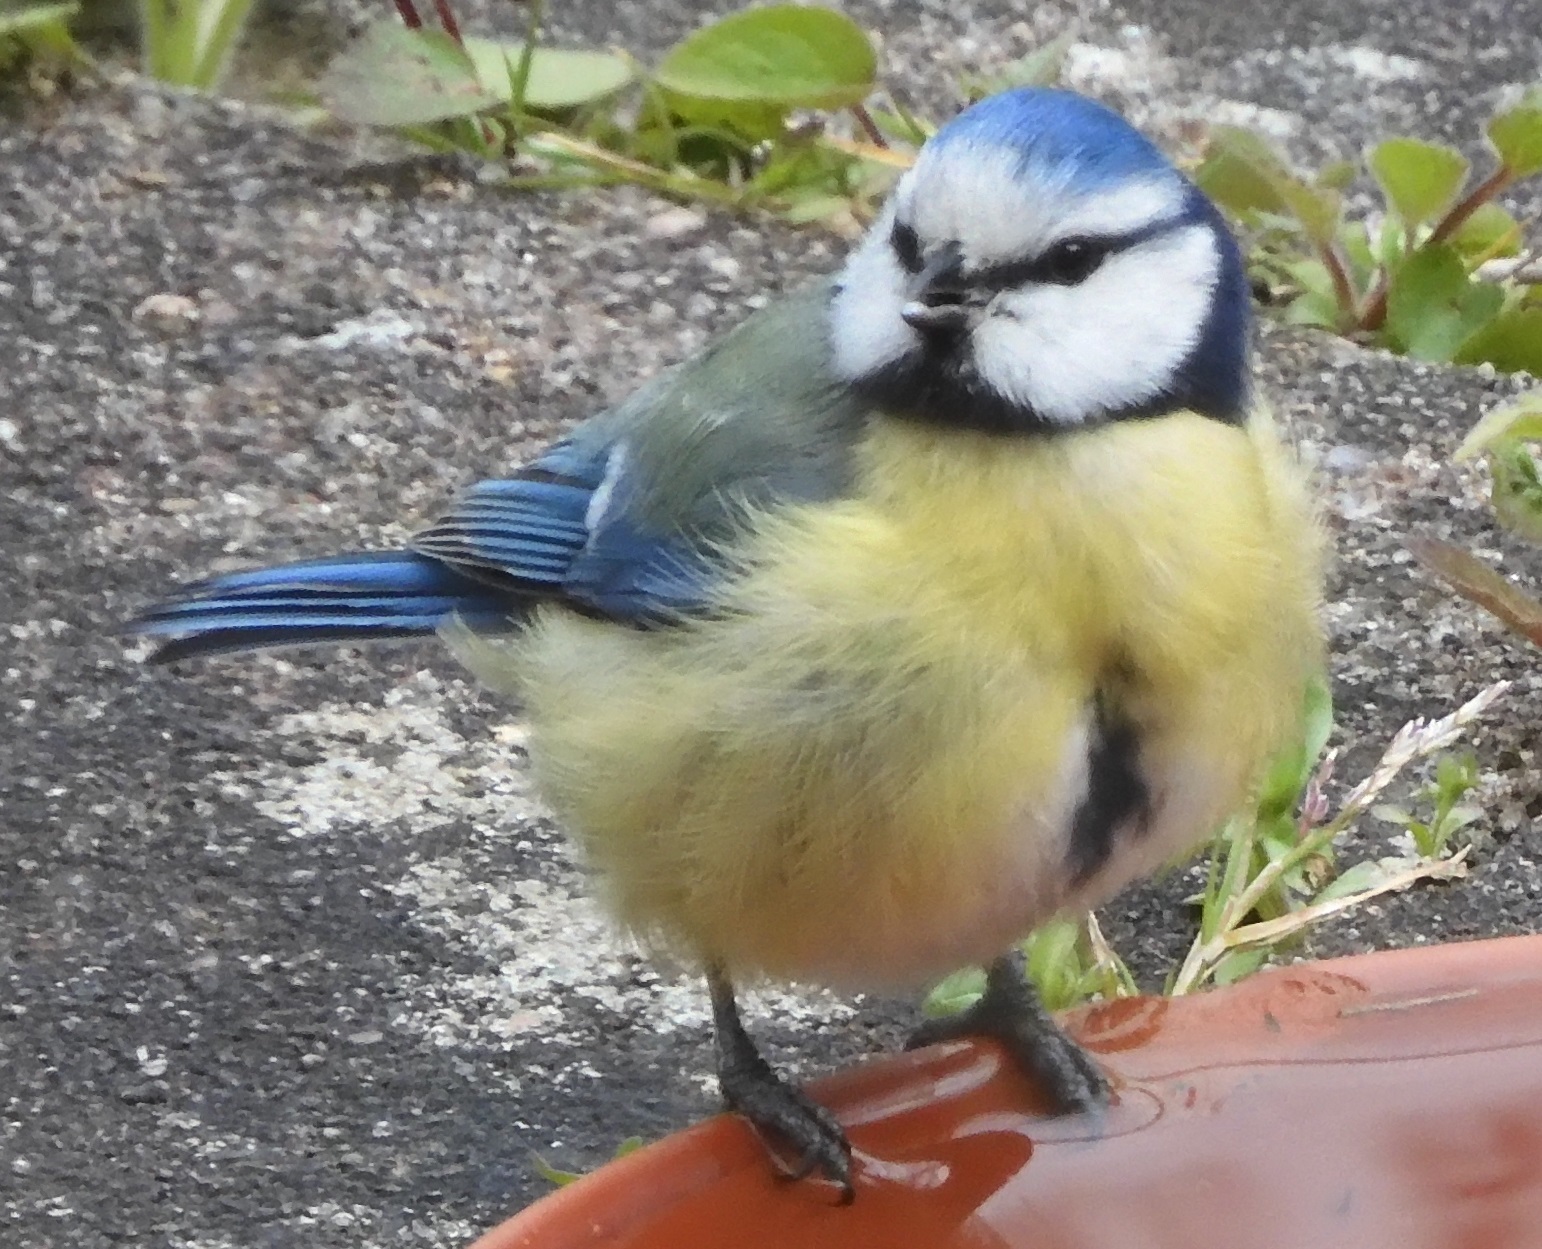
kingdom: Animalia
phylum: Chordata
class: Aves
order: Passeriformes
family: Paridae
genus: Cyanistes
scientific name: Cyanistes caeruleus
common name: Eurasian blue tit
